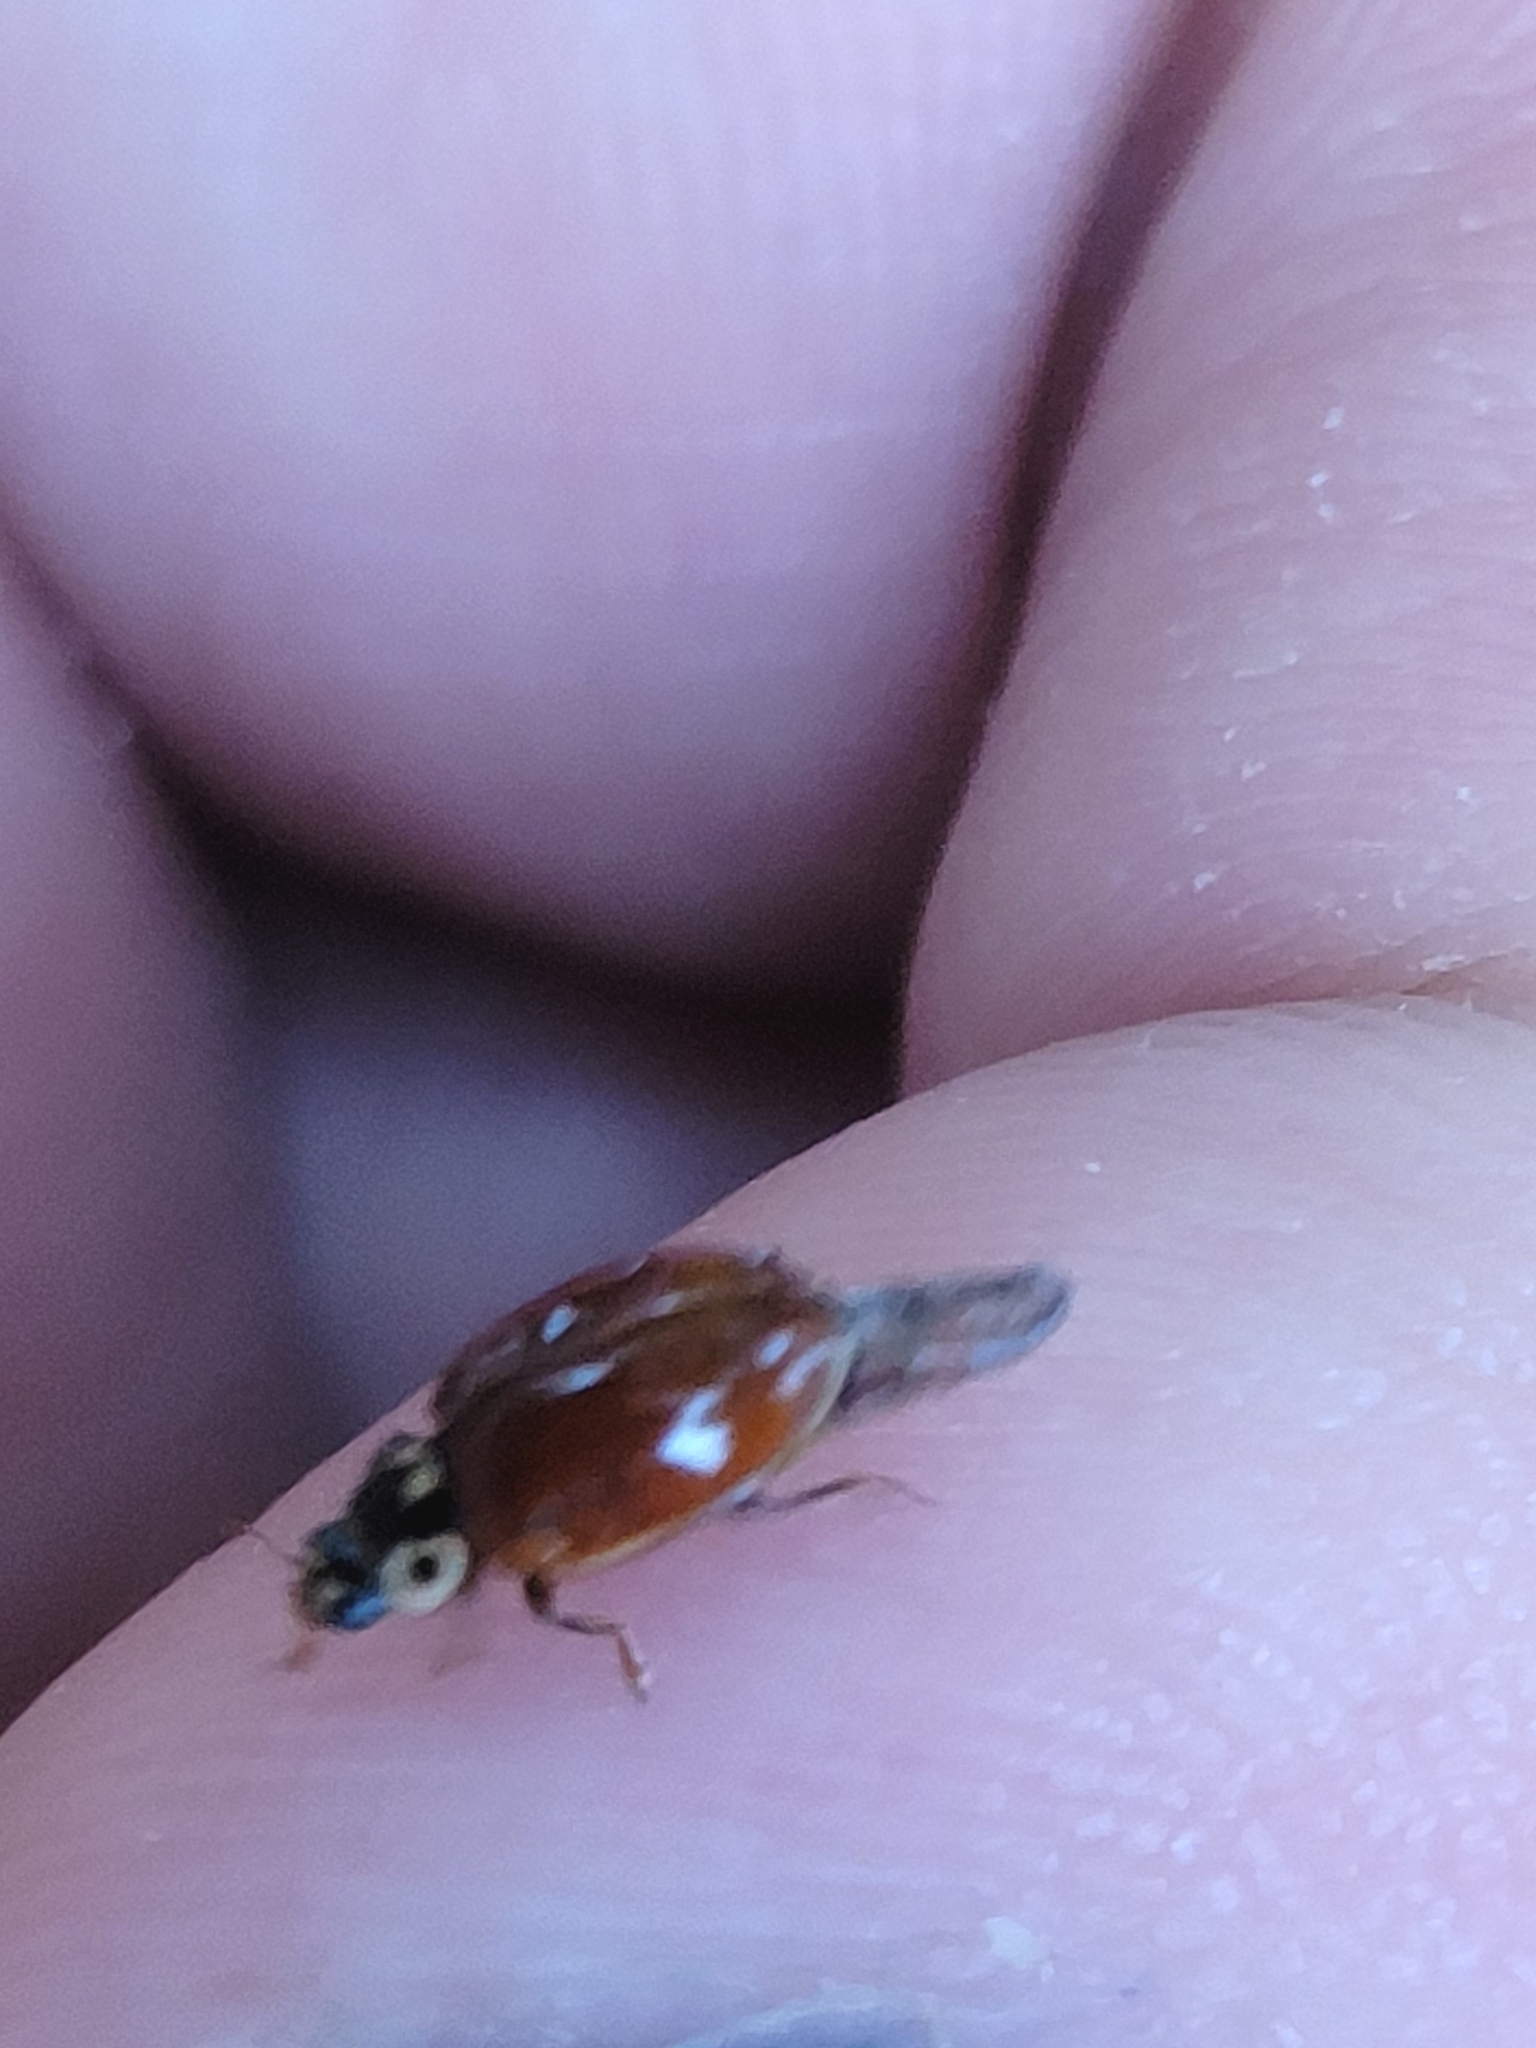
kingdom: Animalia
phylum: Arthropoda
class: Insecta
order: Coleoptera
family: Coccinellidae
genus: Adalia
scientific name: Adalia bipunctata
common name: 2-spot ladybird
